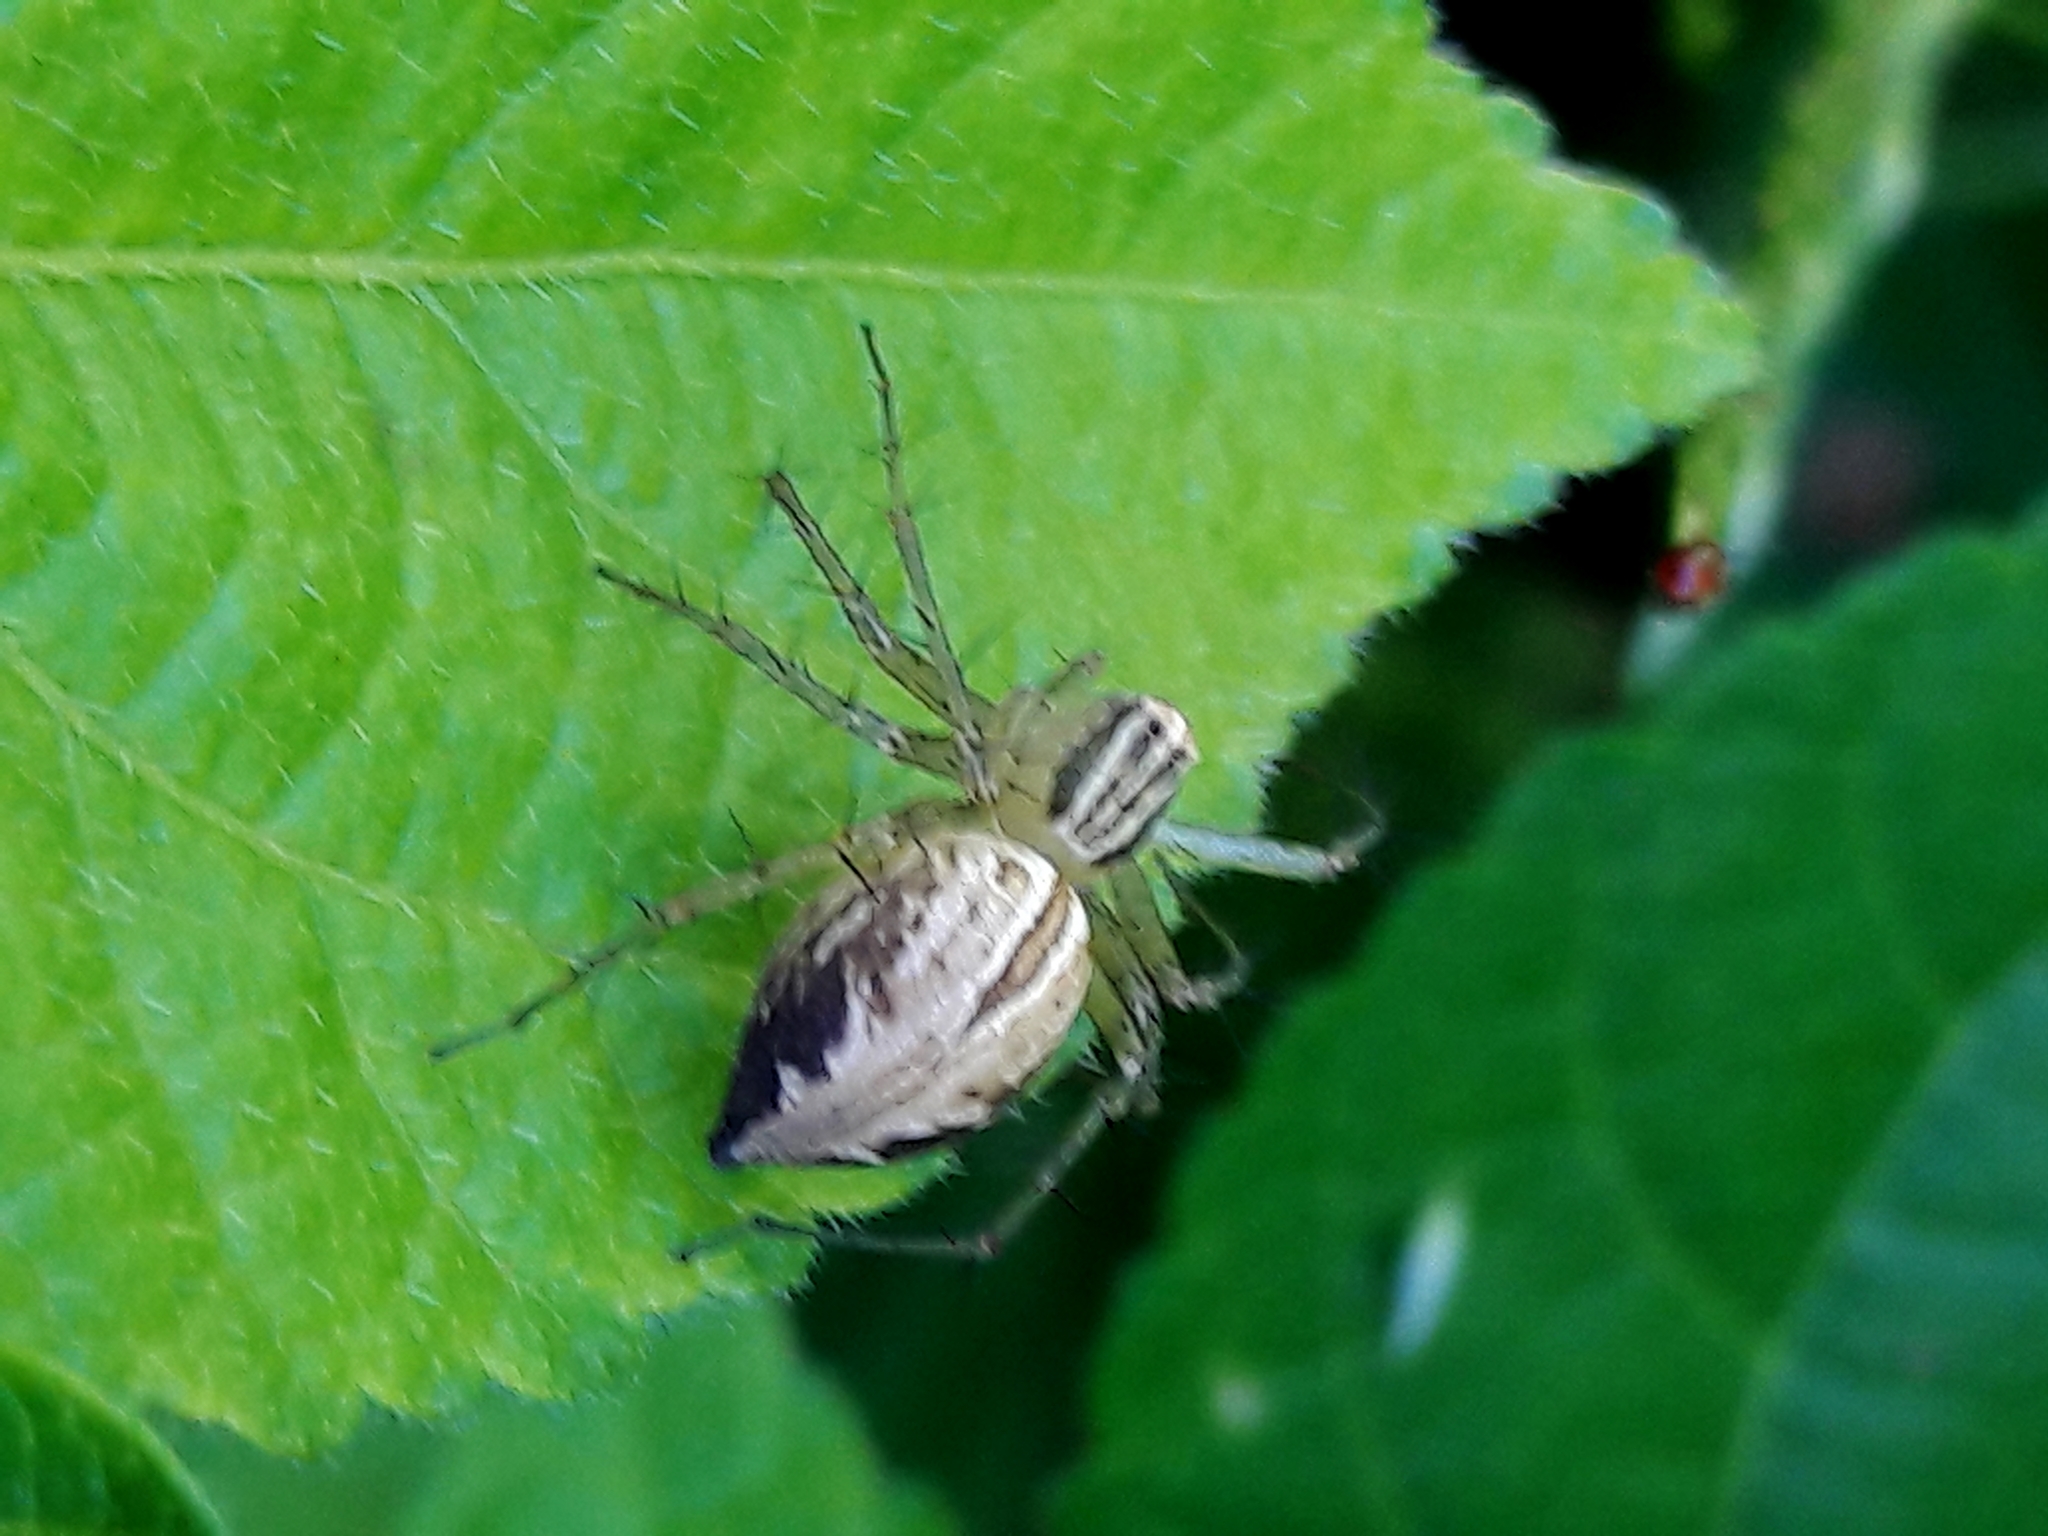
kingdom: Animalia
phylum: Arthropoda
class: Arachnida
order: Araneae
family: Oxyopidae
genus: Oxyopes
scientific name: Oxyopes salticus
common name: Lynx spiders
